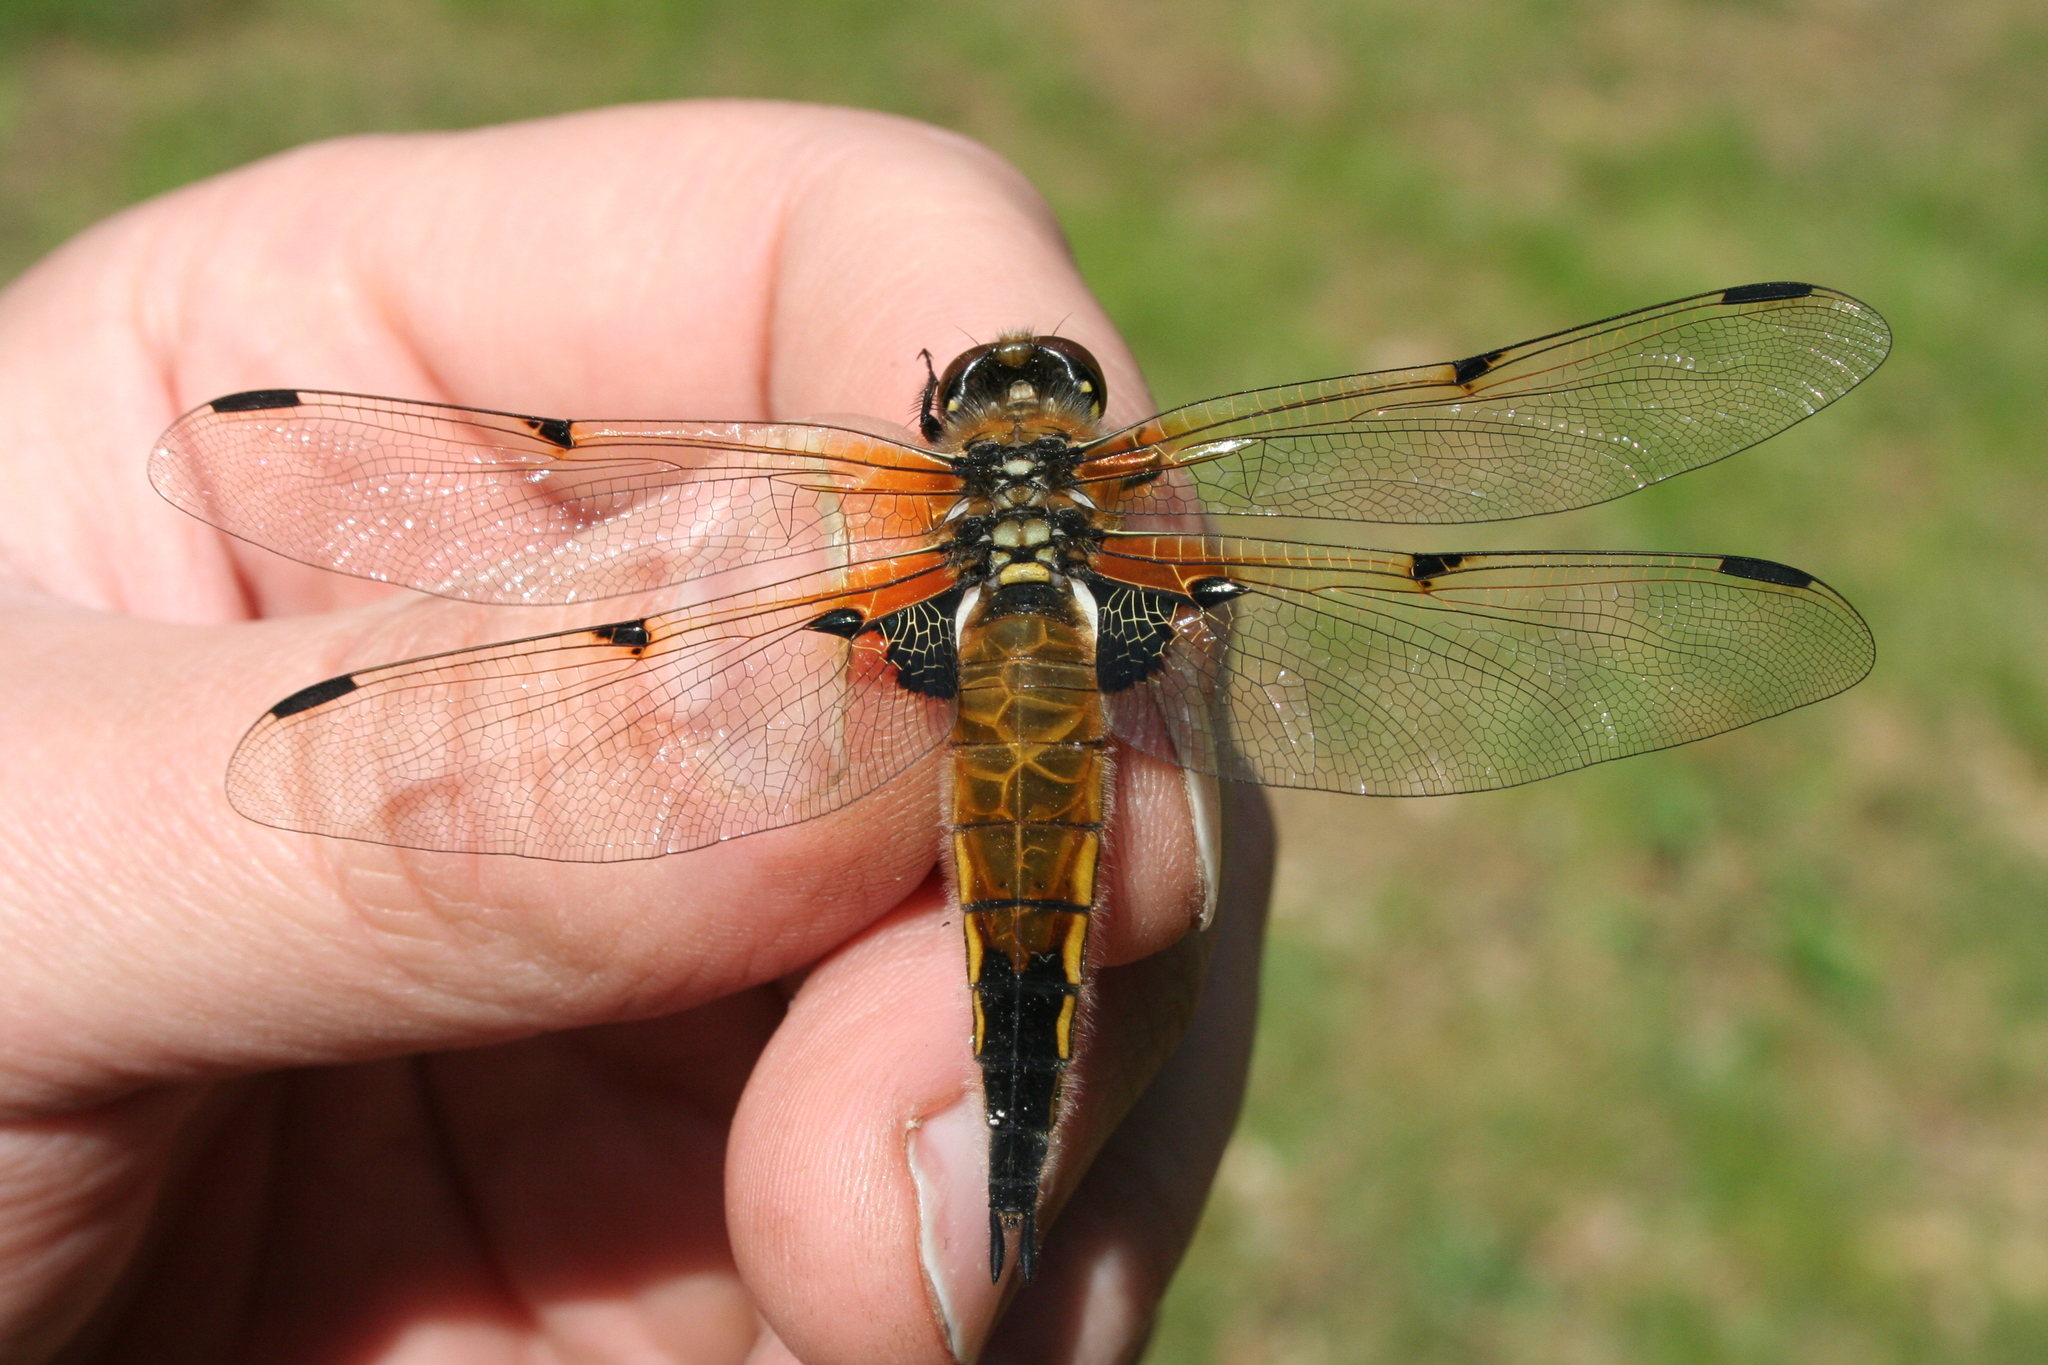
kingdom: Animalia
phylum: Arthropoda
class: Insecta
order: Odonata
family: Libellulidae
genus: Libellula
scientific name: Libellula quadrimaculata
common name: Four-spotted chaser
